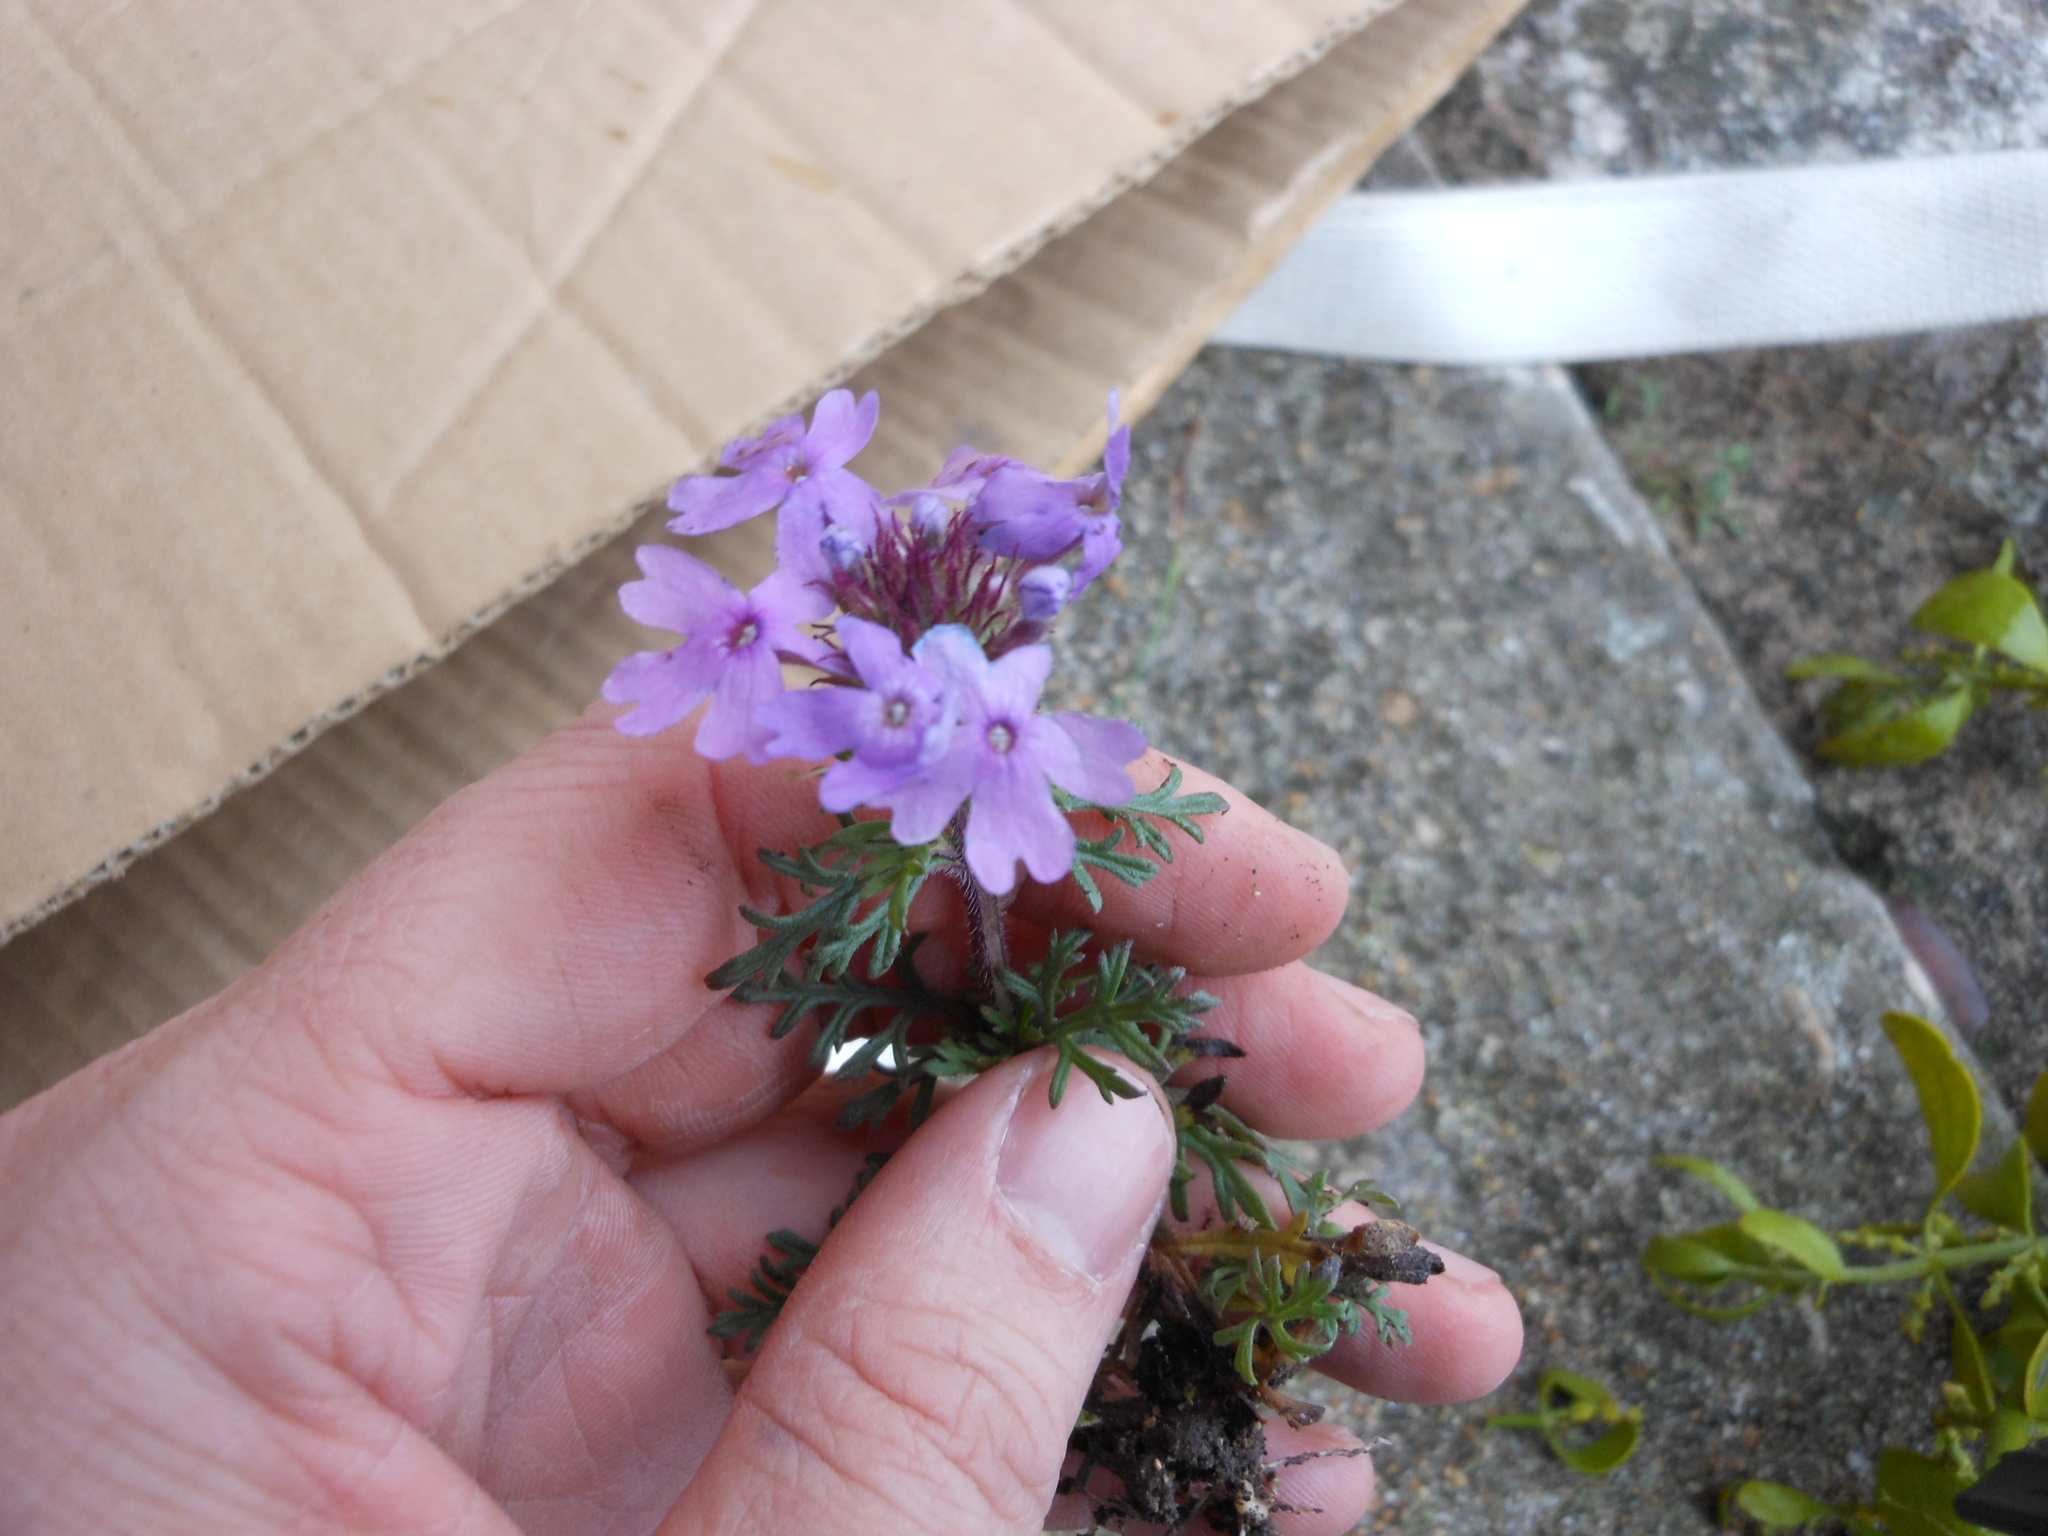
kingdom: Plantae
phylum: Tracheophyta
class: Magnoliopsida
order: Lamiales
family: Verbenaceae
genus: Verbena
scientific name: Verbena bipinnatifida
